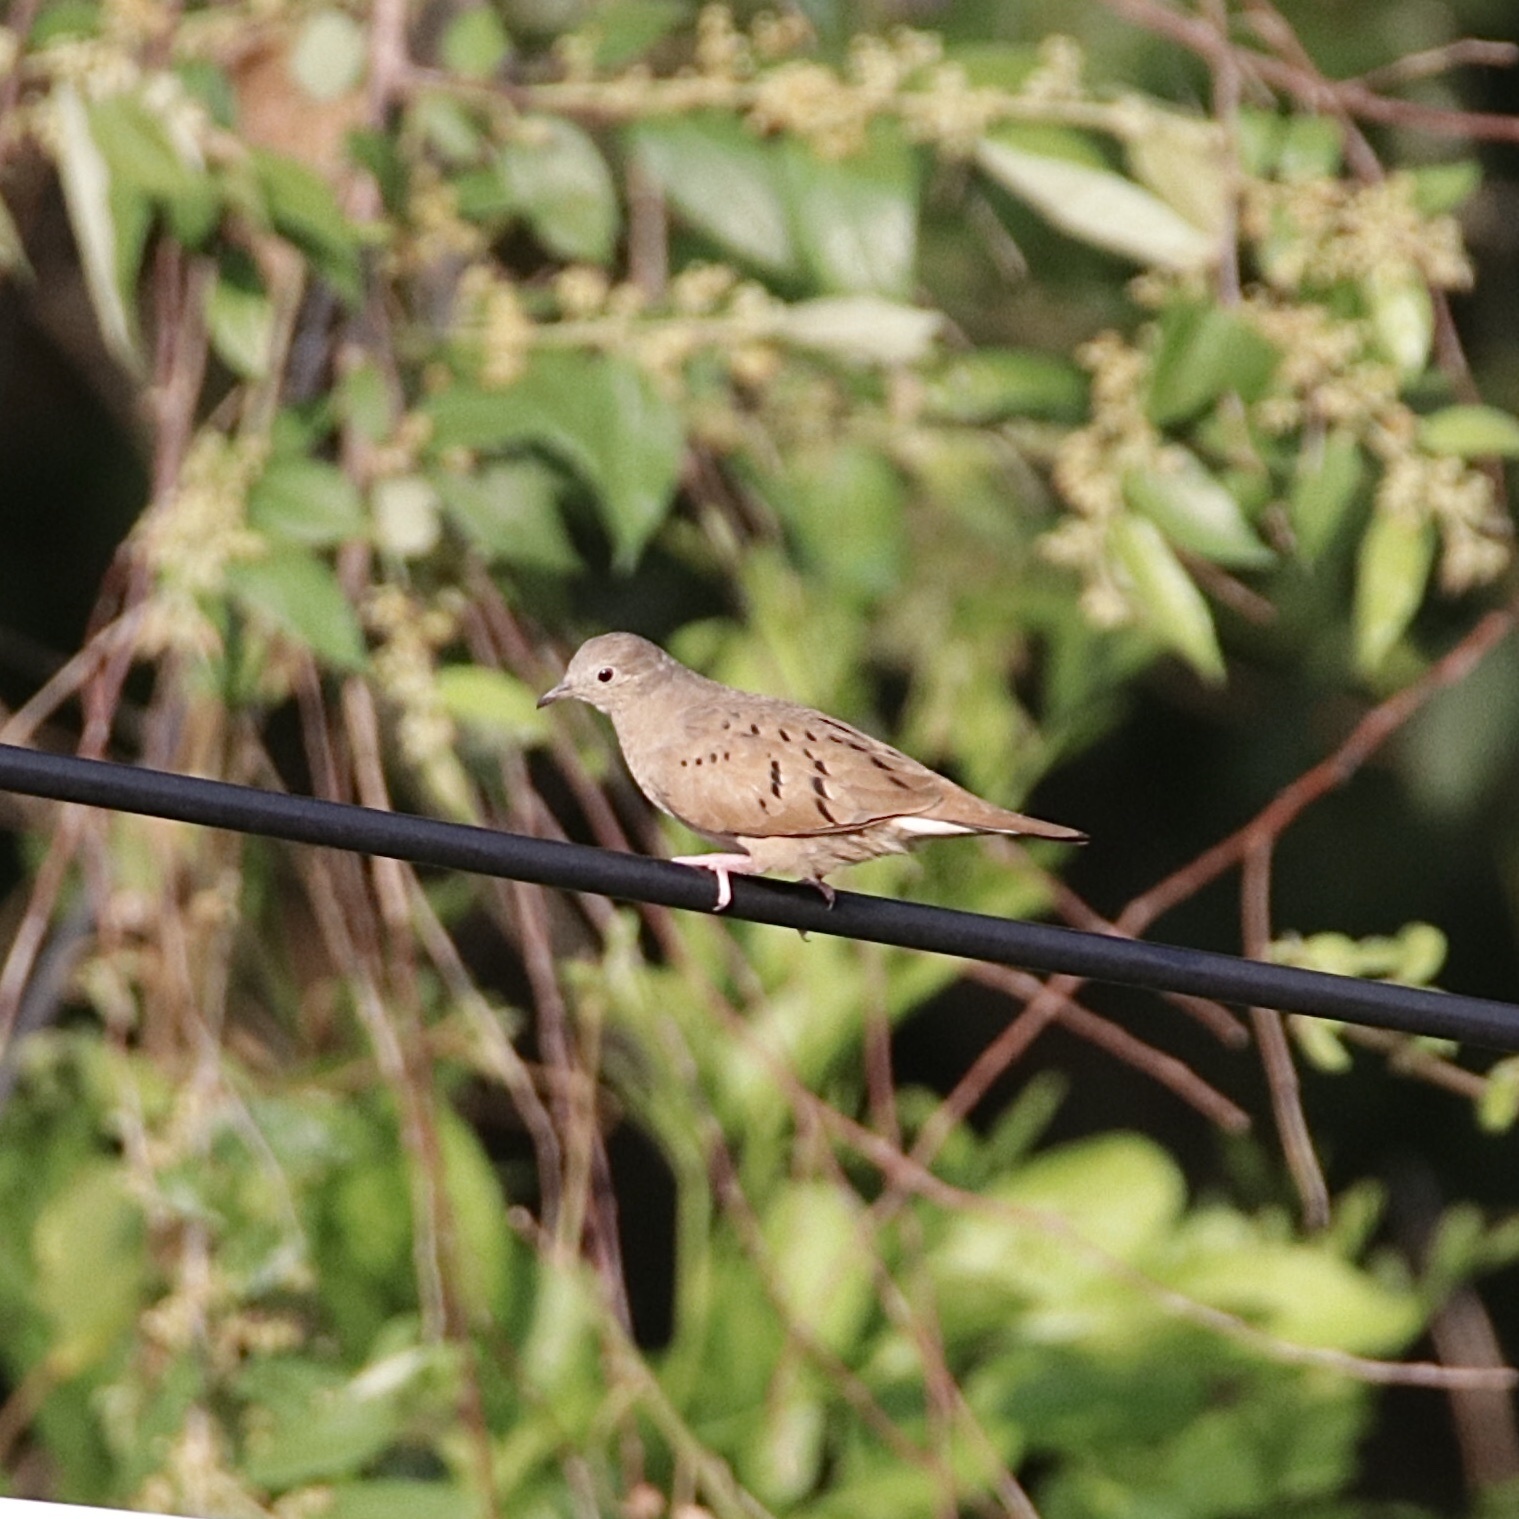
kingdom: Animalia
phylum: Chordata
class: Aves
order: Columbiformes
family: Columbidae
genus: Columbina
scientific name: Columbina talpacoti
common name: Ruddy ground dove
